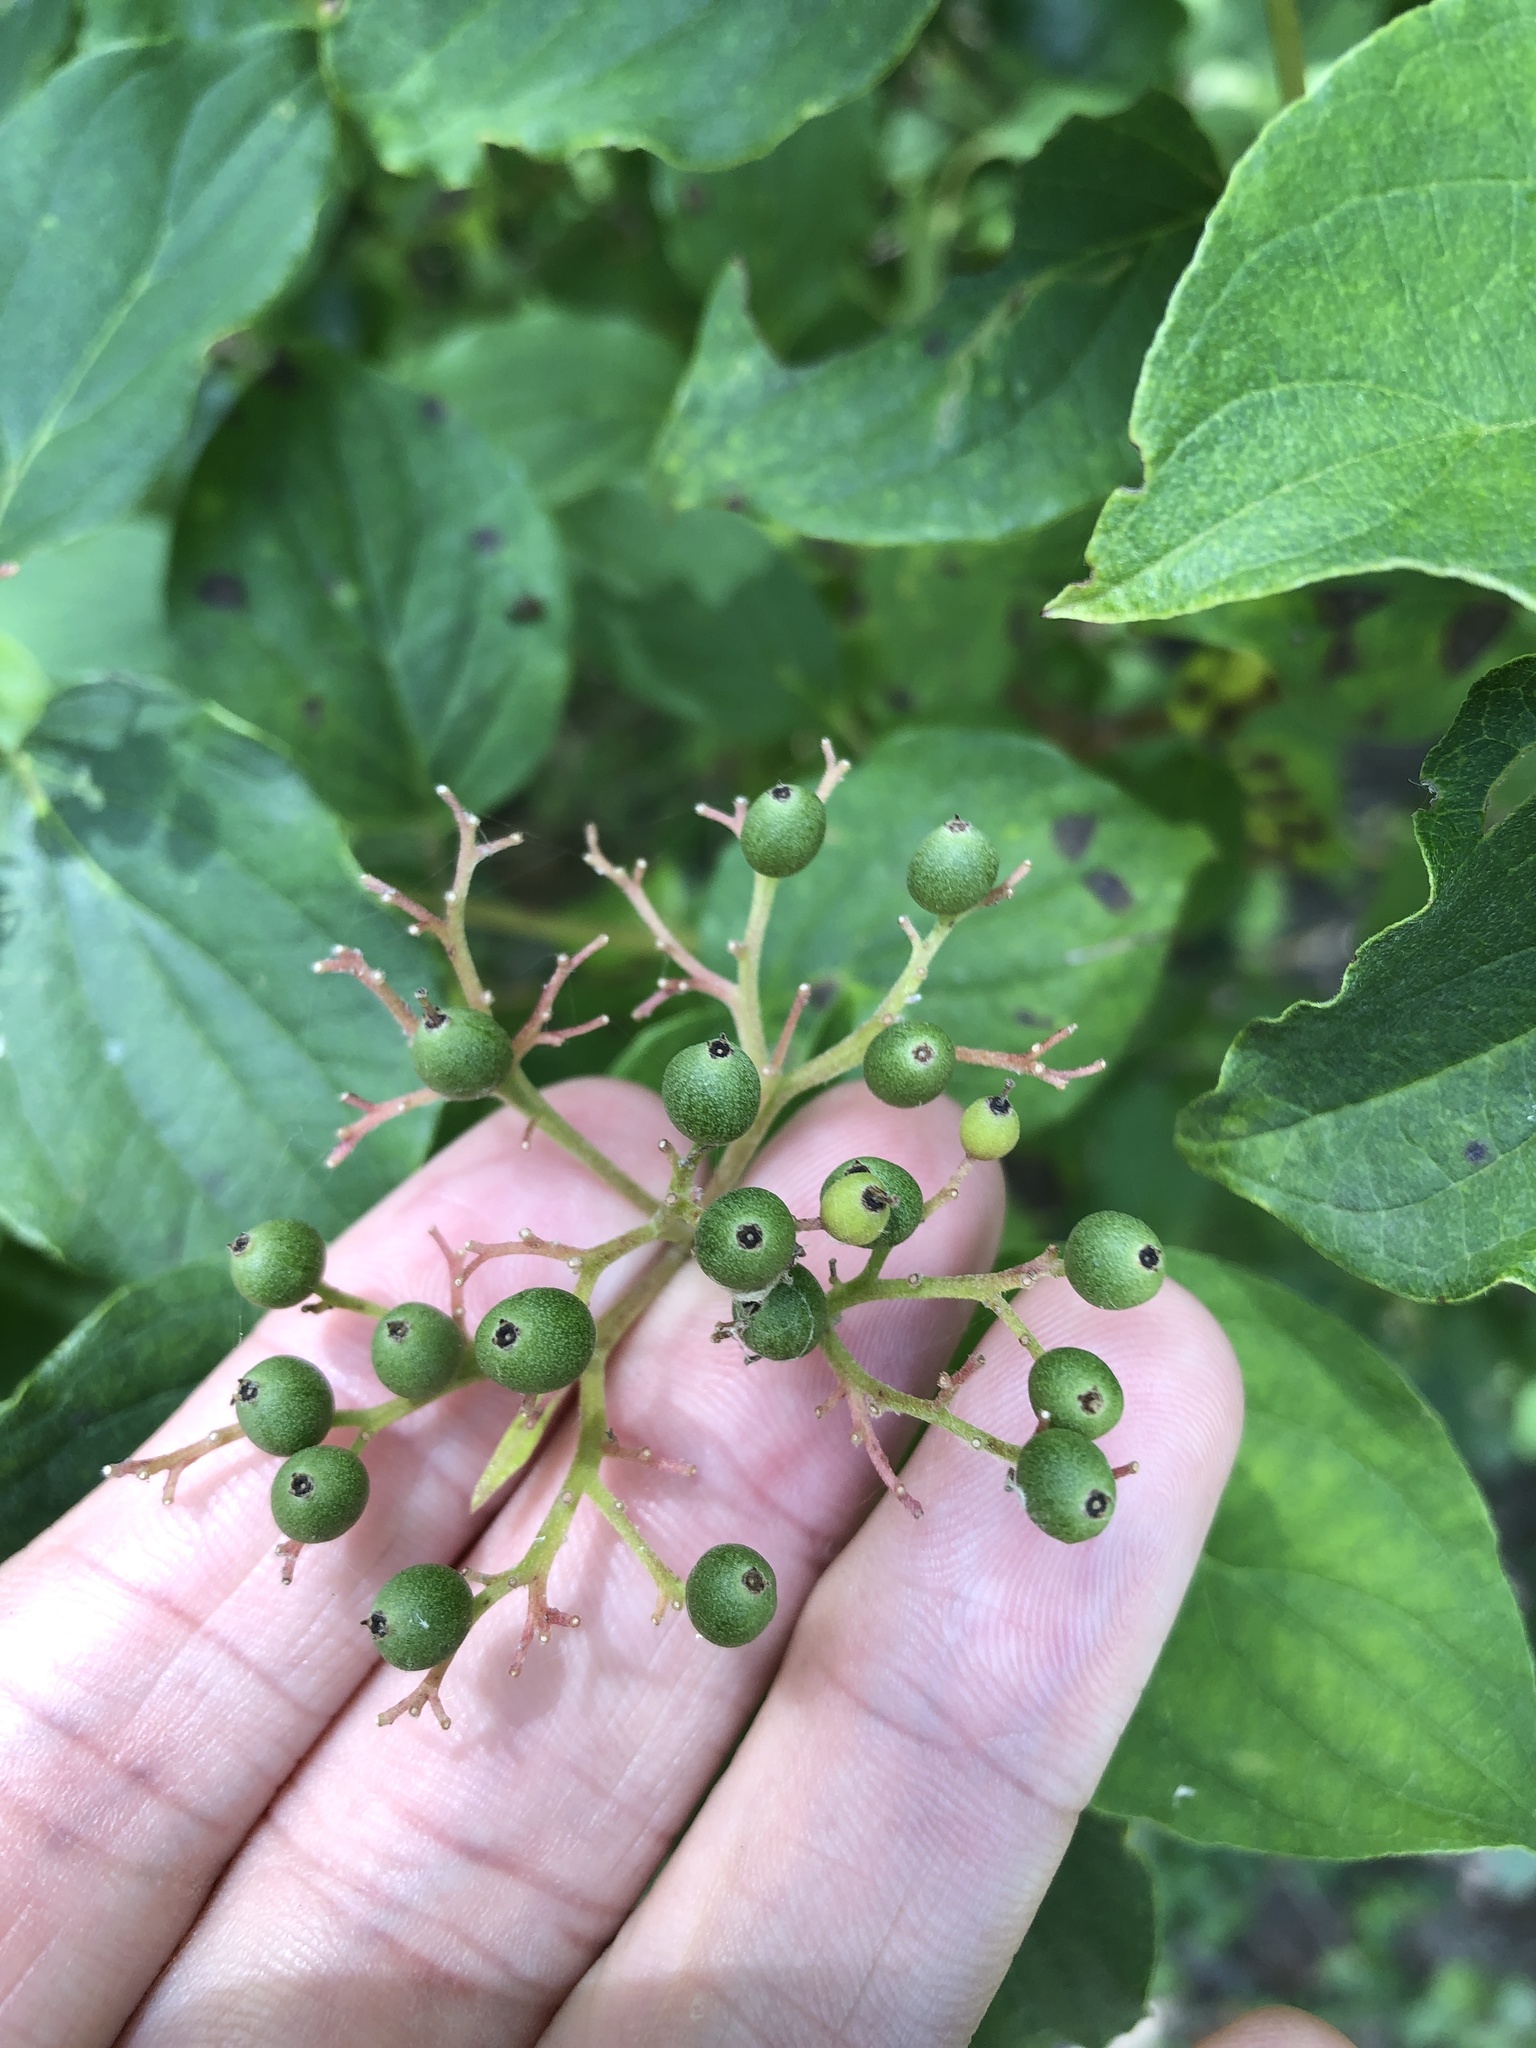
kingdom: Plantae
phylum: Tracheophyta
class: Magnoliopsida
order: Cornales
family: Cornaceae
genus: Cornus
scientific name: Cornus drummondii
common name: Rough-leaf dogwood
